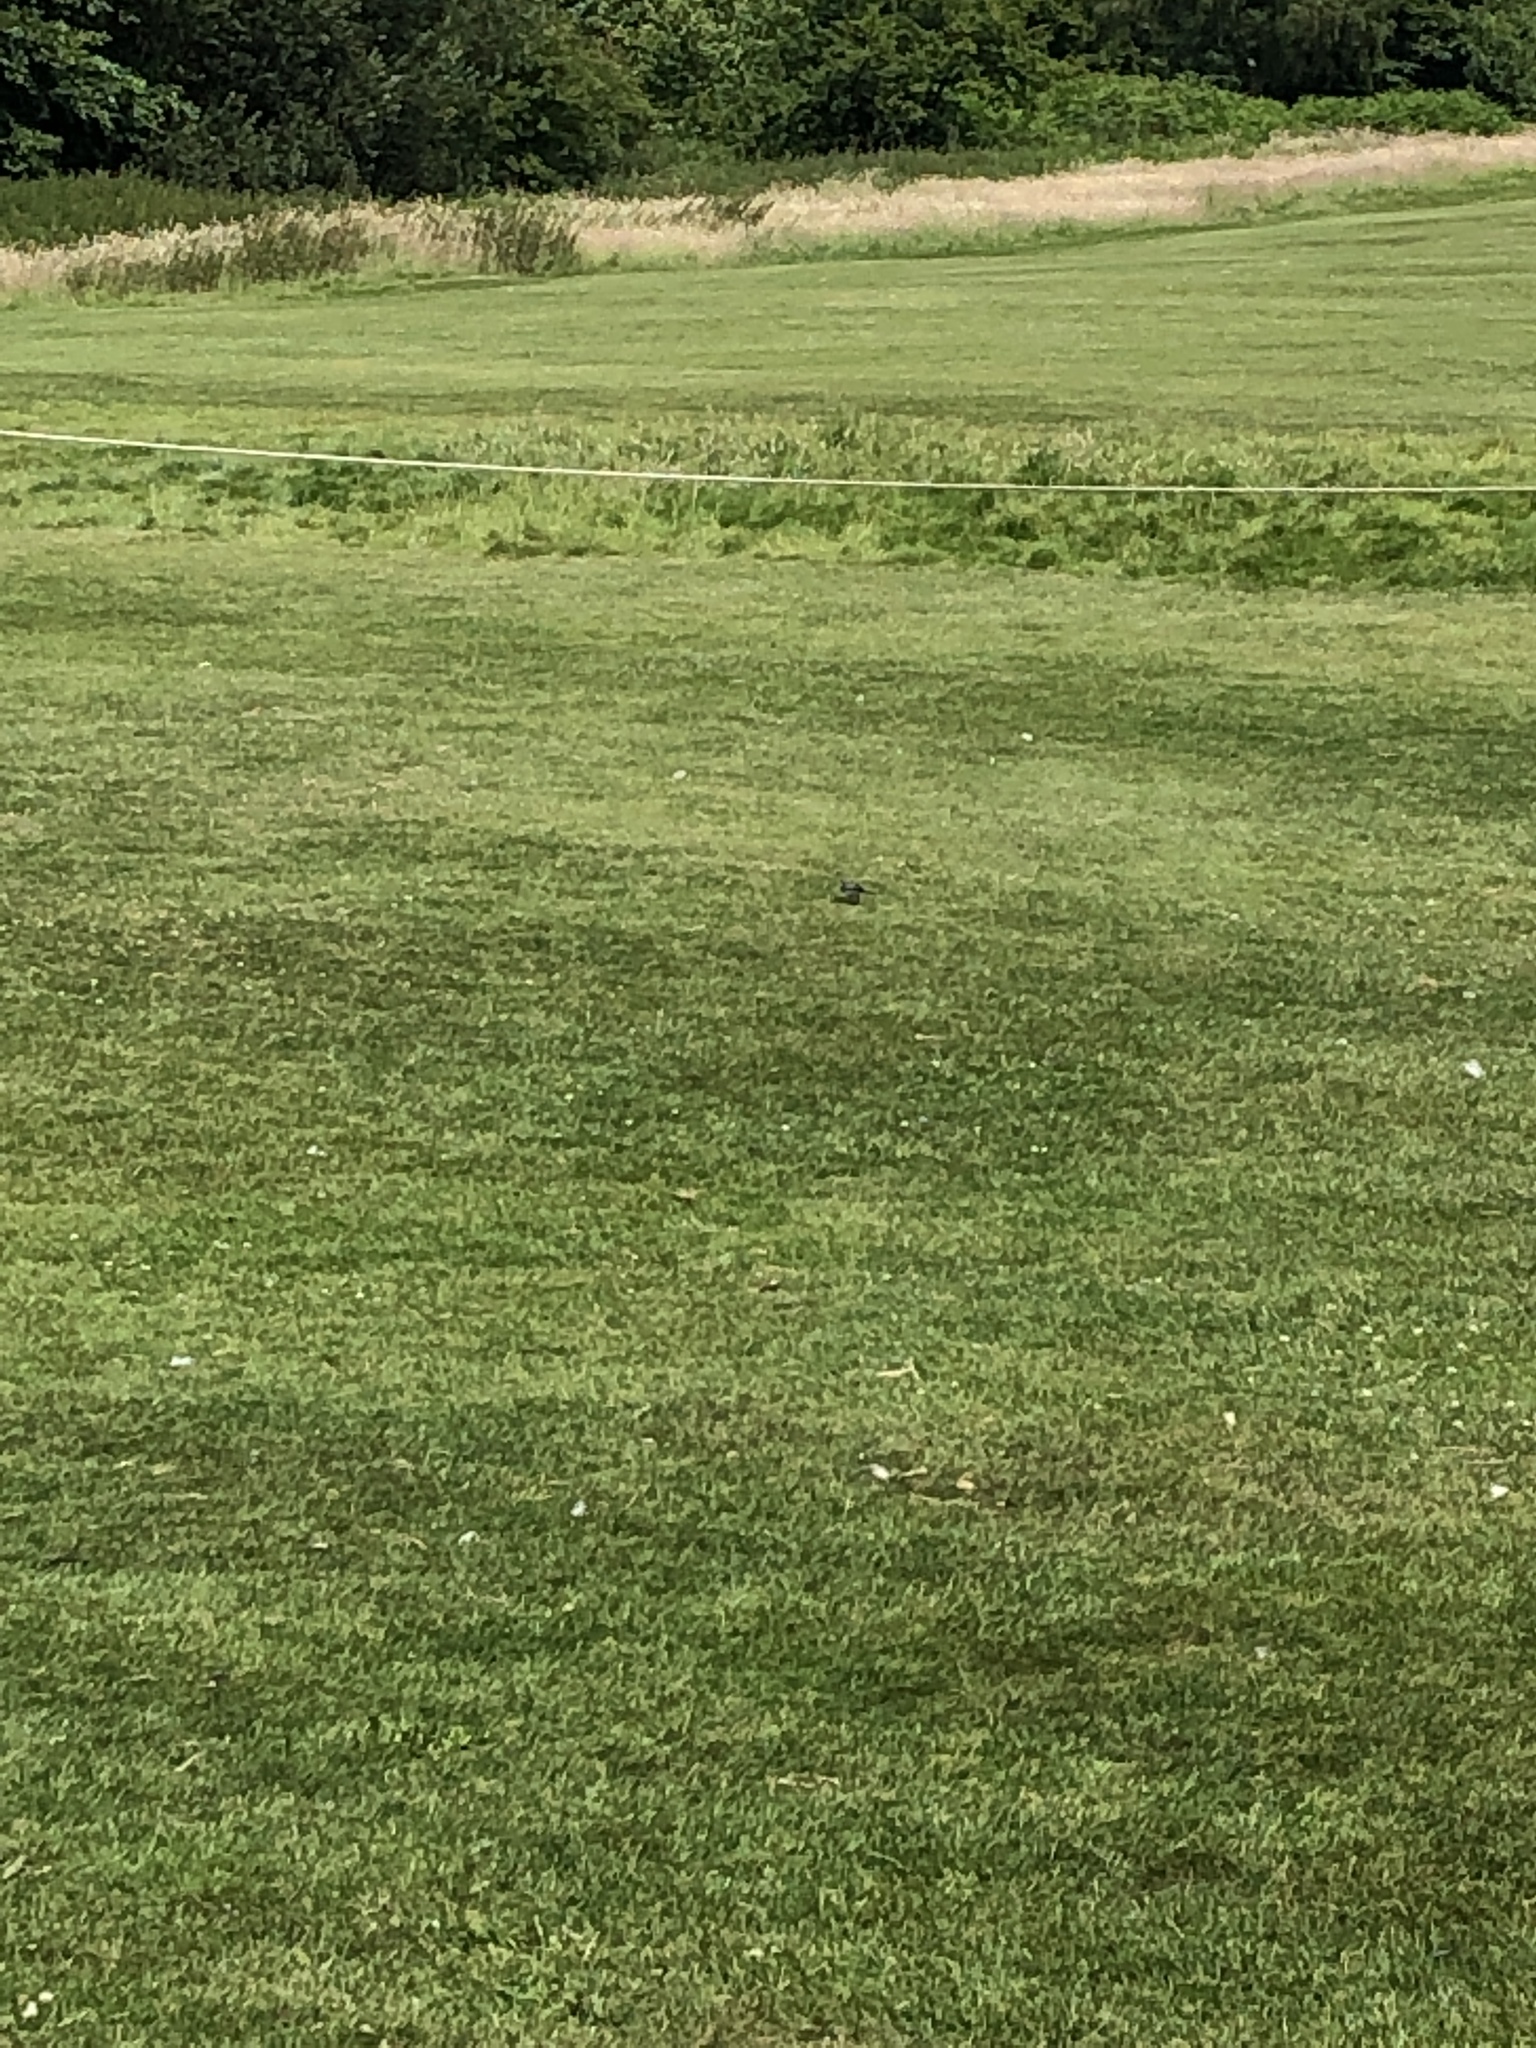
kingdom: Animalia
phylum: Chordata
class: Aves
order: Passeriformes
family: Motacillidae
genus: Motacilla
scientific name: Motacilla alba
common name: White wagtail
